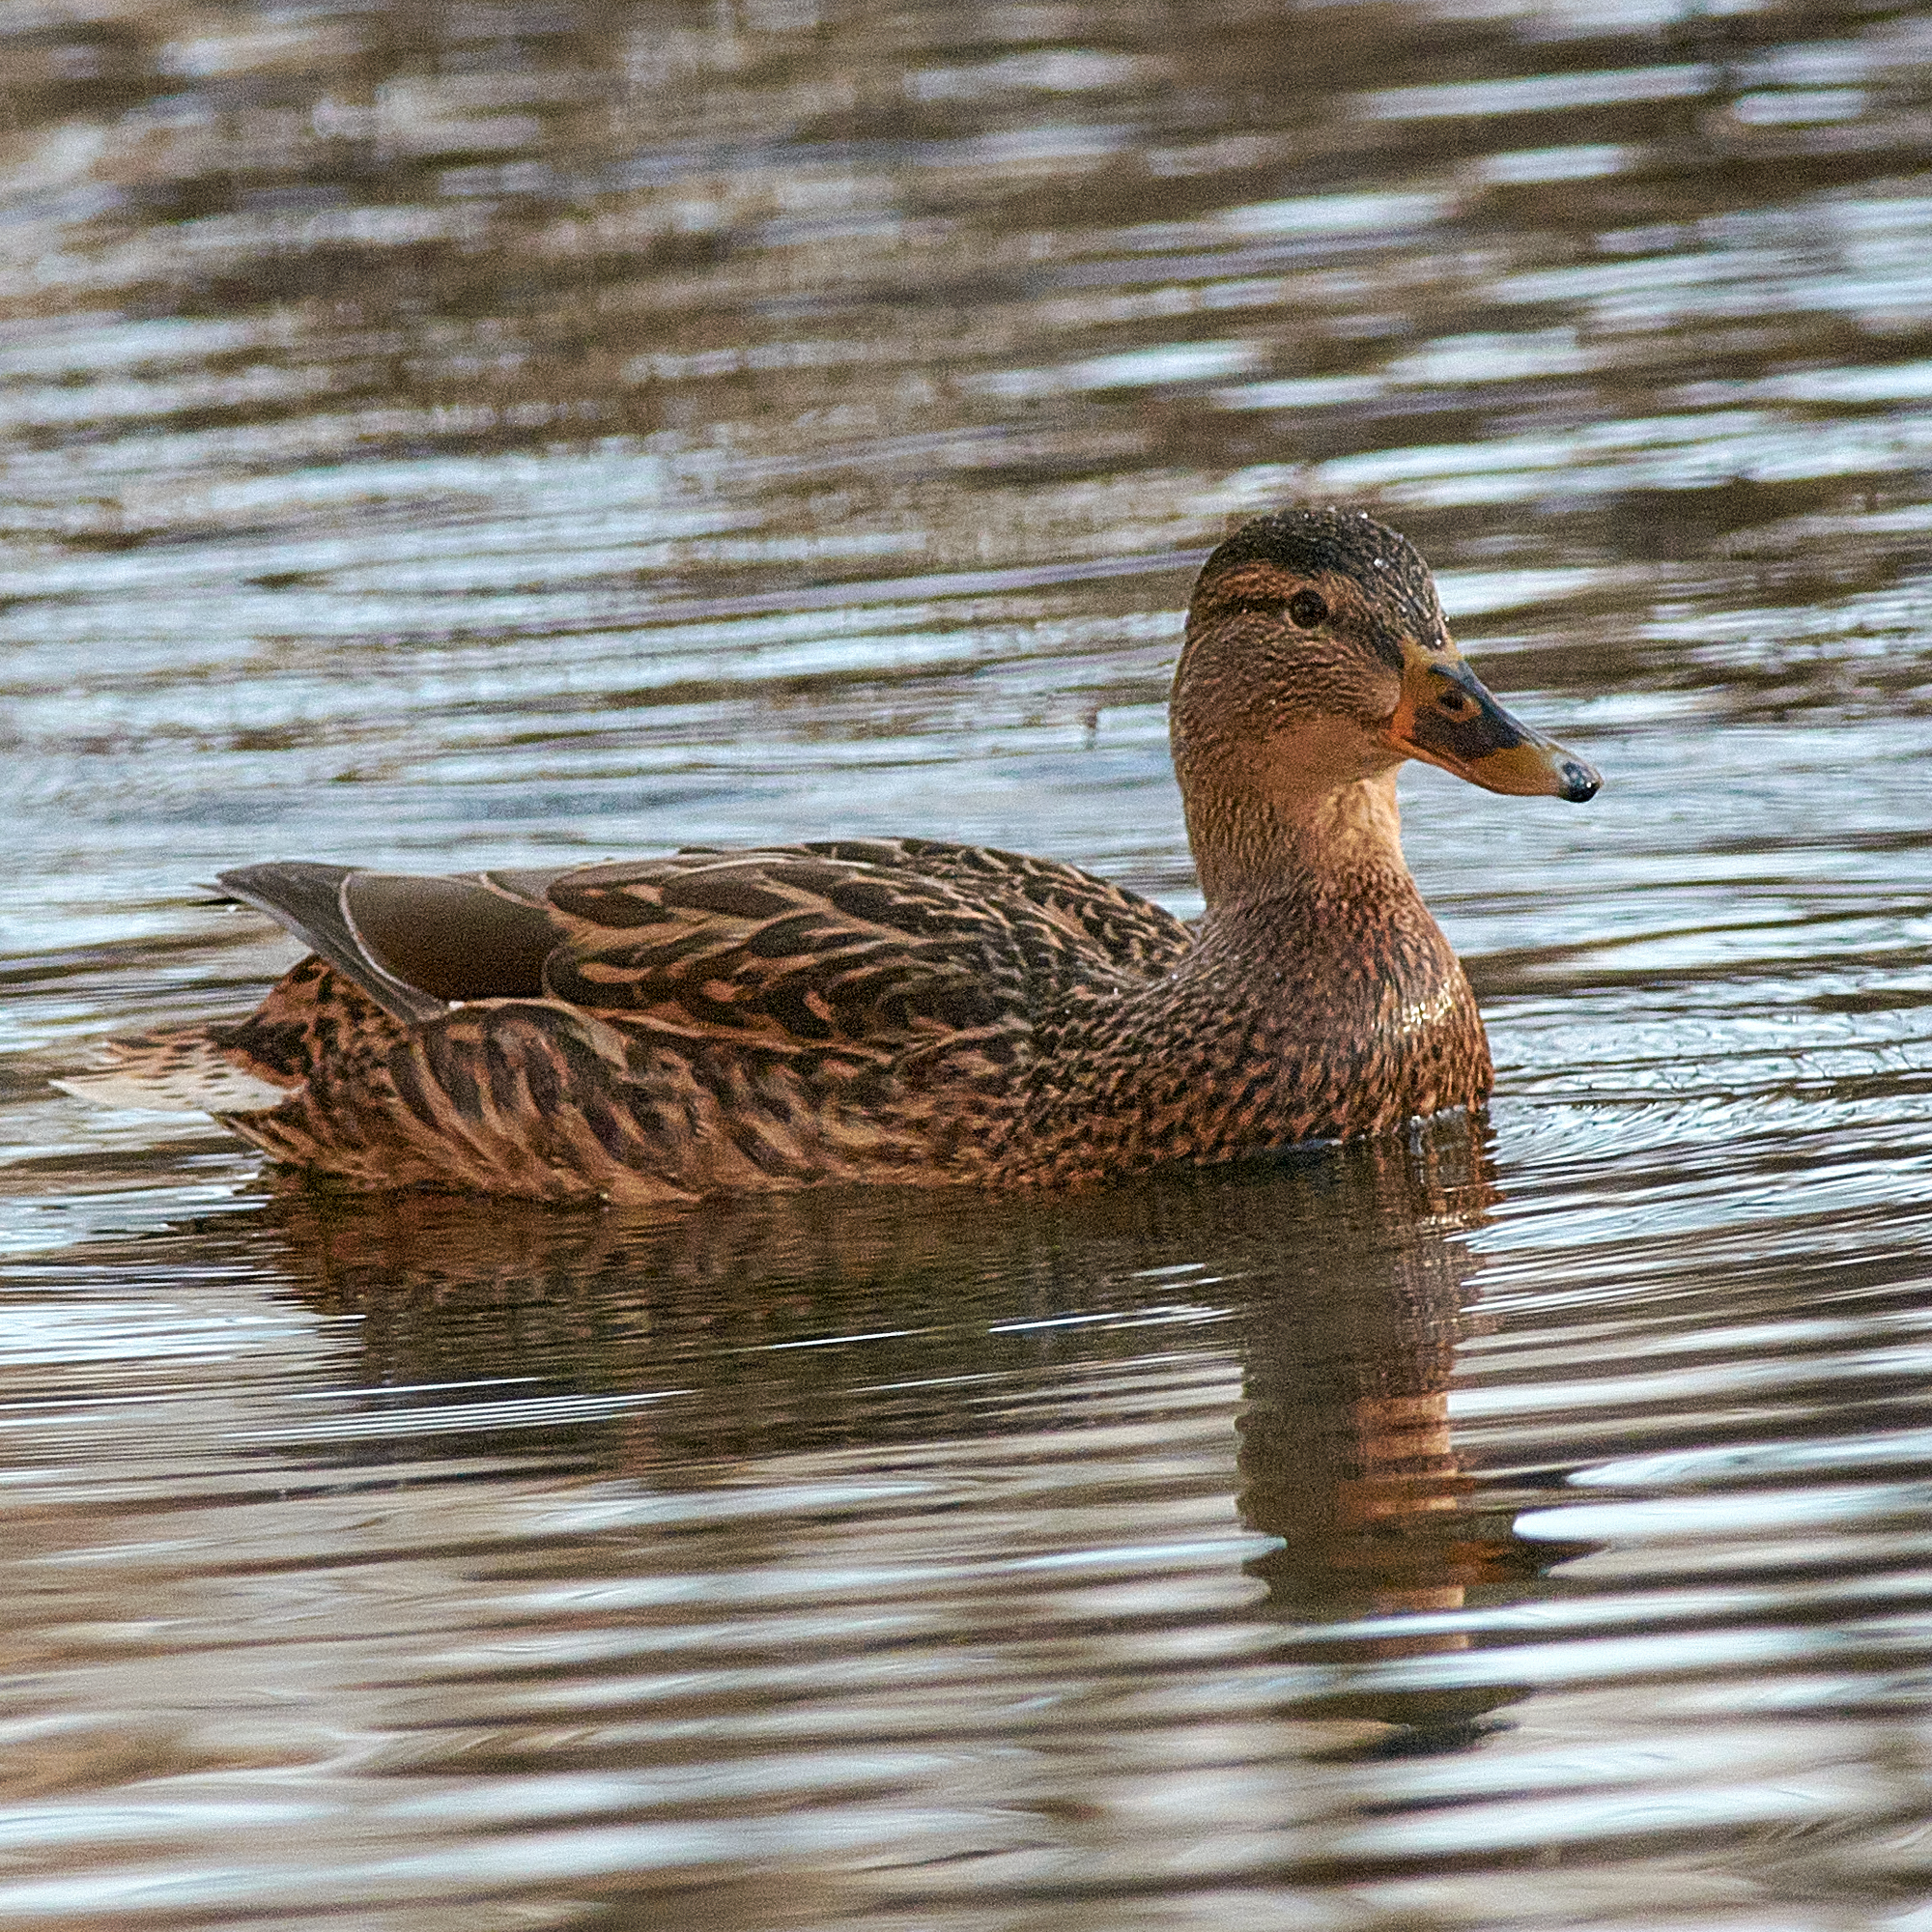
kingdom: Animalia
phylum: Chordata
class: Aves
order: Anseriformes
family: Anatidae
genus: Anas
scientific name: Anas platyrhynchos
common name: Mallard
